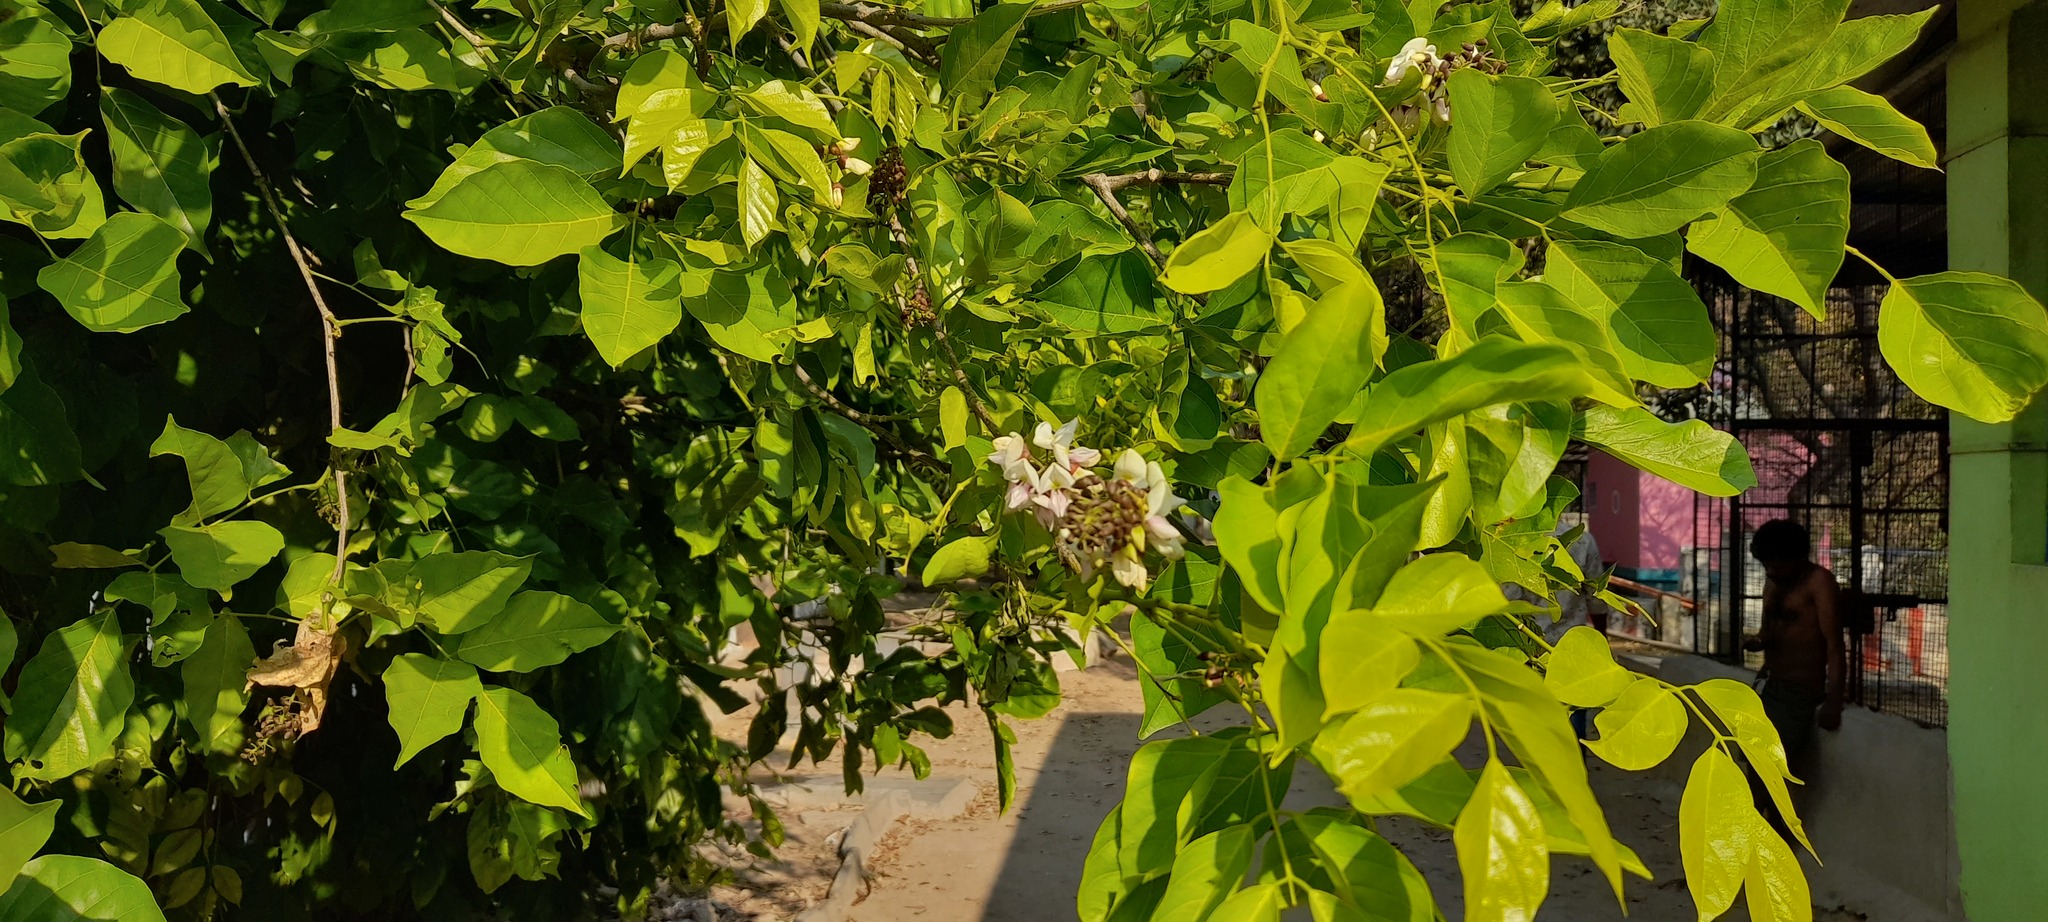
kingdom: Plantae
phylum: Tracheophyta
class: Magnoliopsida
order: Fabales
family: Fabaceae
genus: Pongamia
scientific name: Pongamia pinnata
